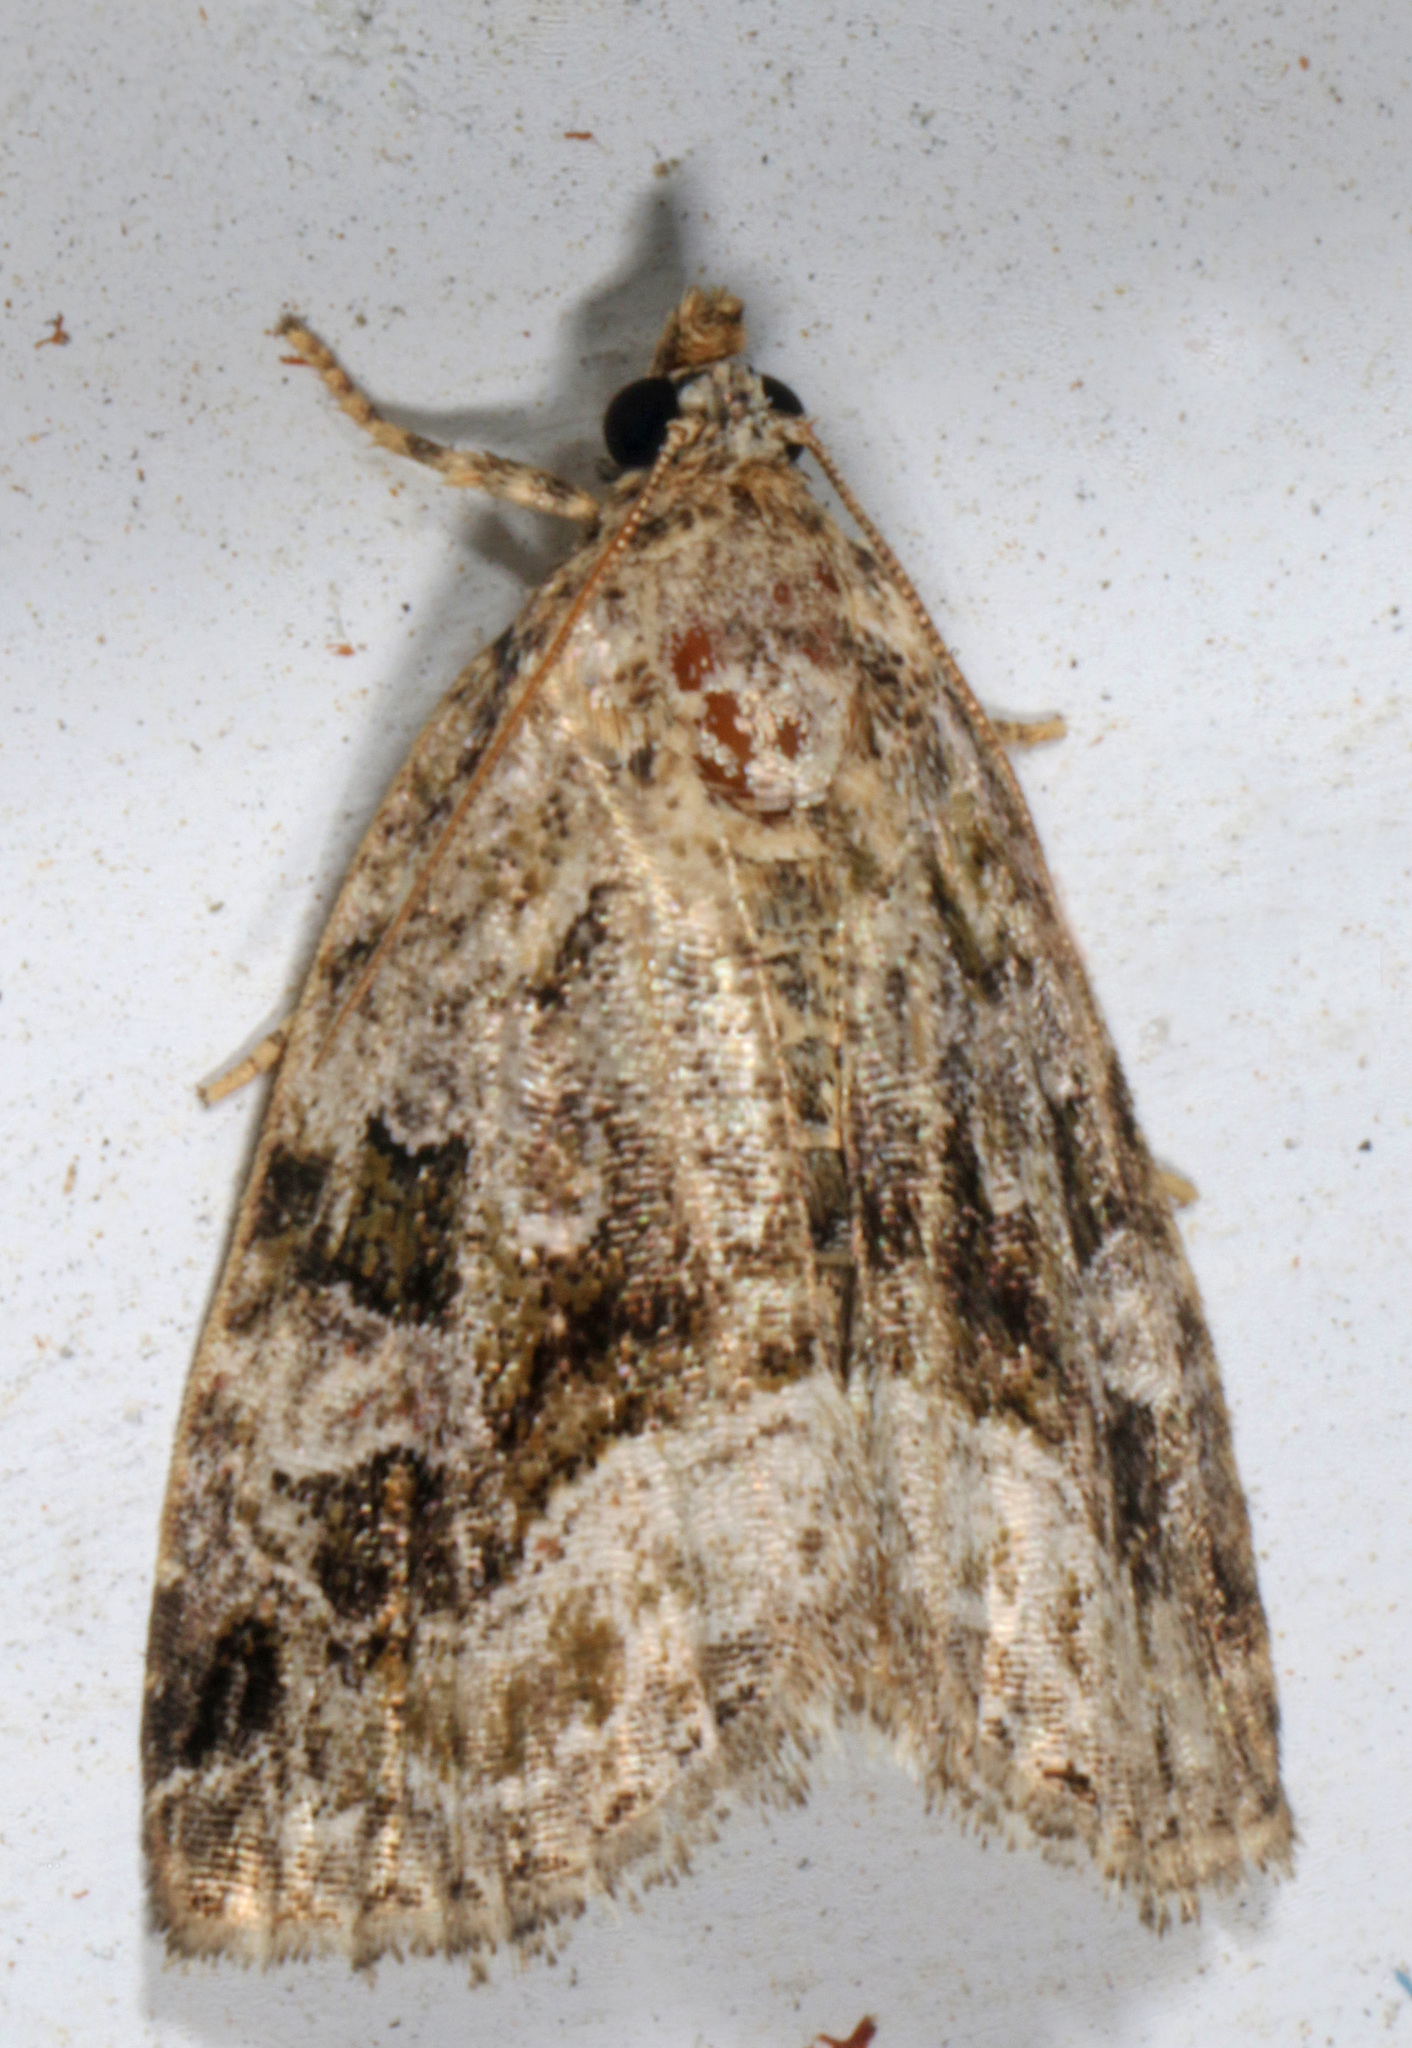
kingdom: Animalia
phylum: Arthropoda
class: Insecta
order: Lepidoptera
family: Noctuidae
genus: Protodeltote
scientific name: Protodeltote muscosula
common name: Large mossy glyph
